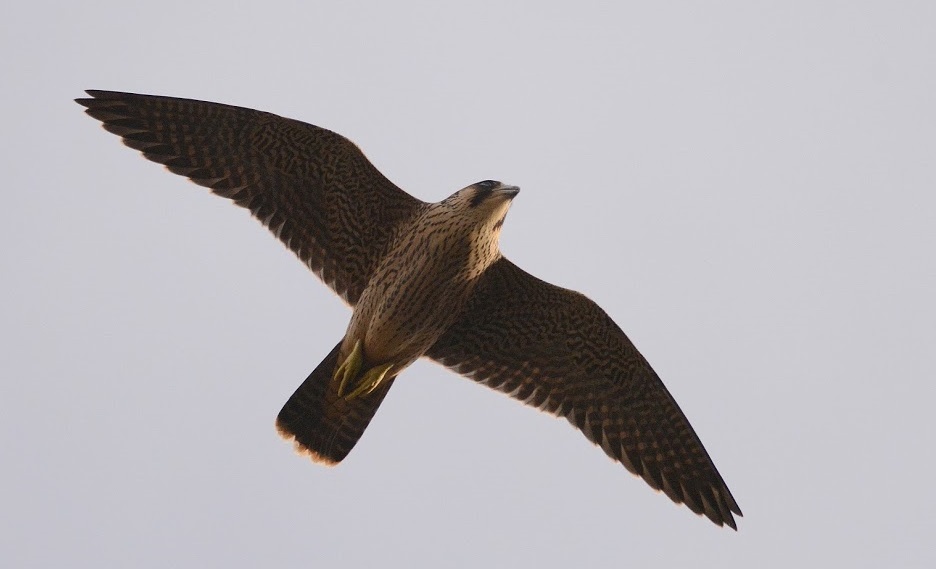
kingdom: Animalia
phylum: Chordata
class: Aves
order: Falconiformes
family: Falconidae
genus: Falco
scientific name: Falco peregrinus
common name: Peregrine falcon
